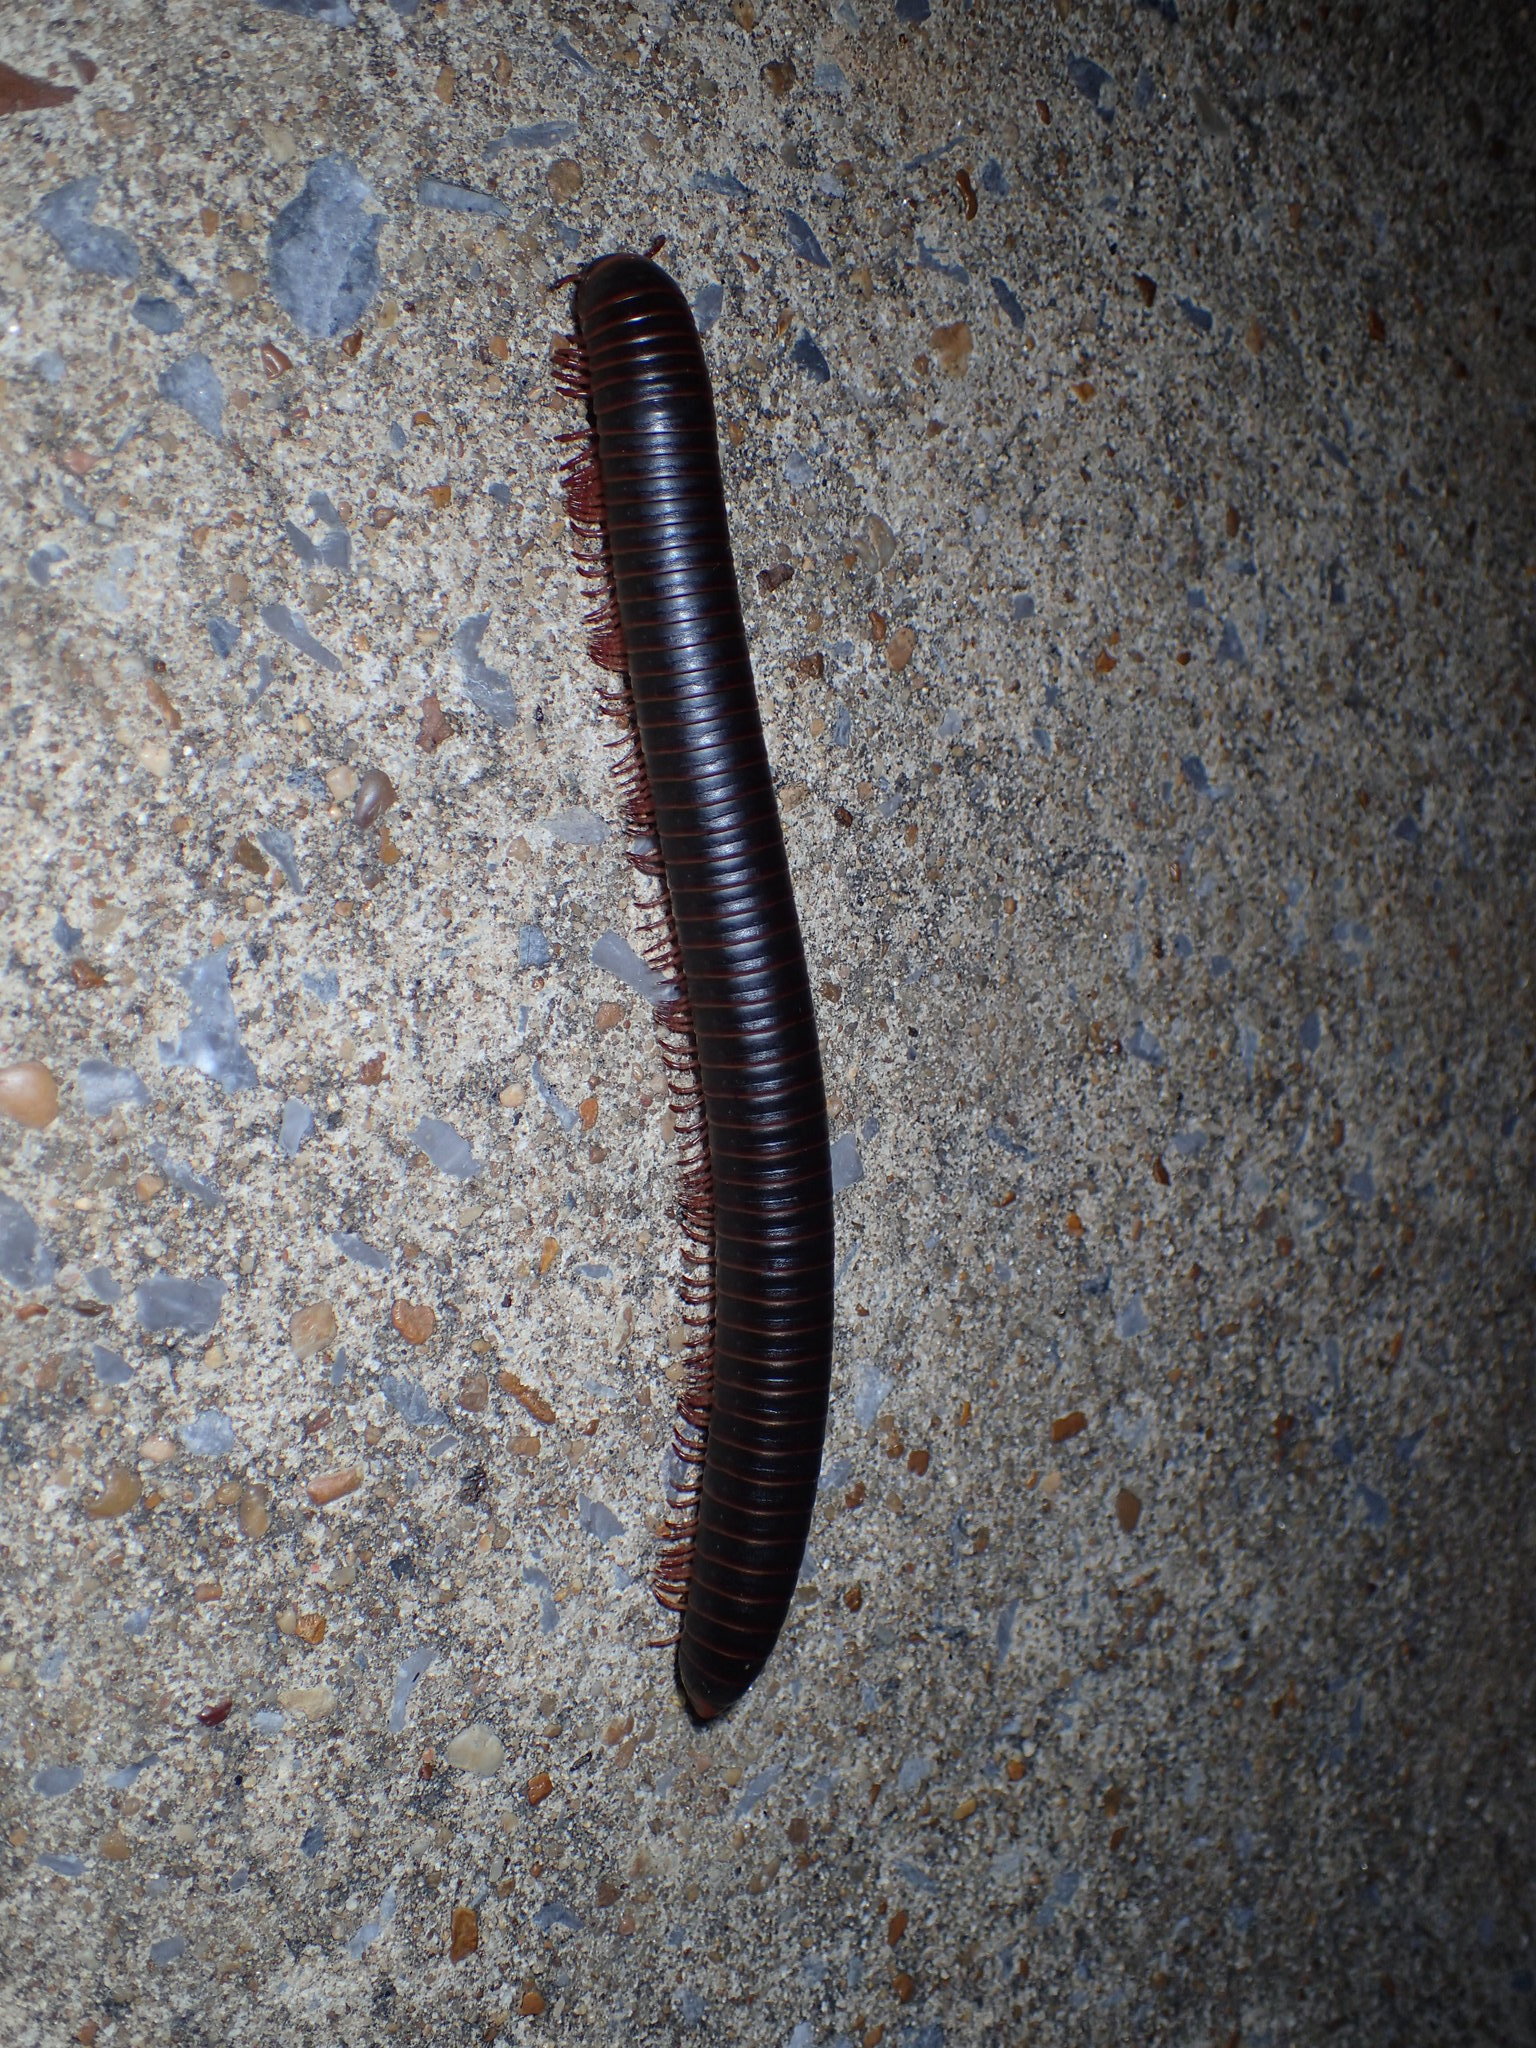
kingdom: Animalia
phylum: Arthropoda
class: Diplopoda
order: Spirobolida
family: Spirobolidae
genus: Narceus
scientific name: Narceus
